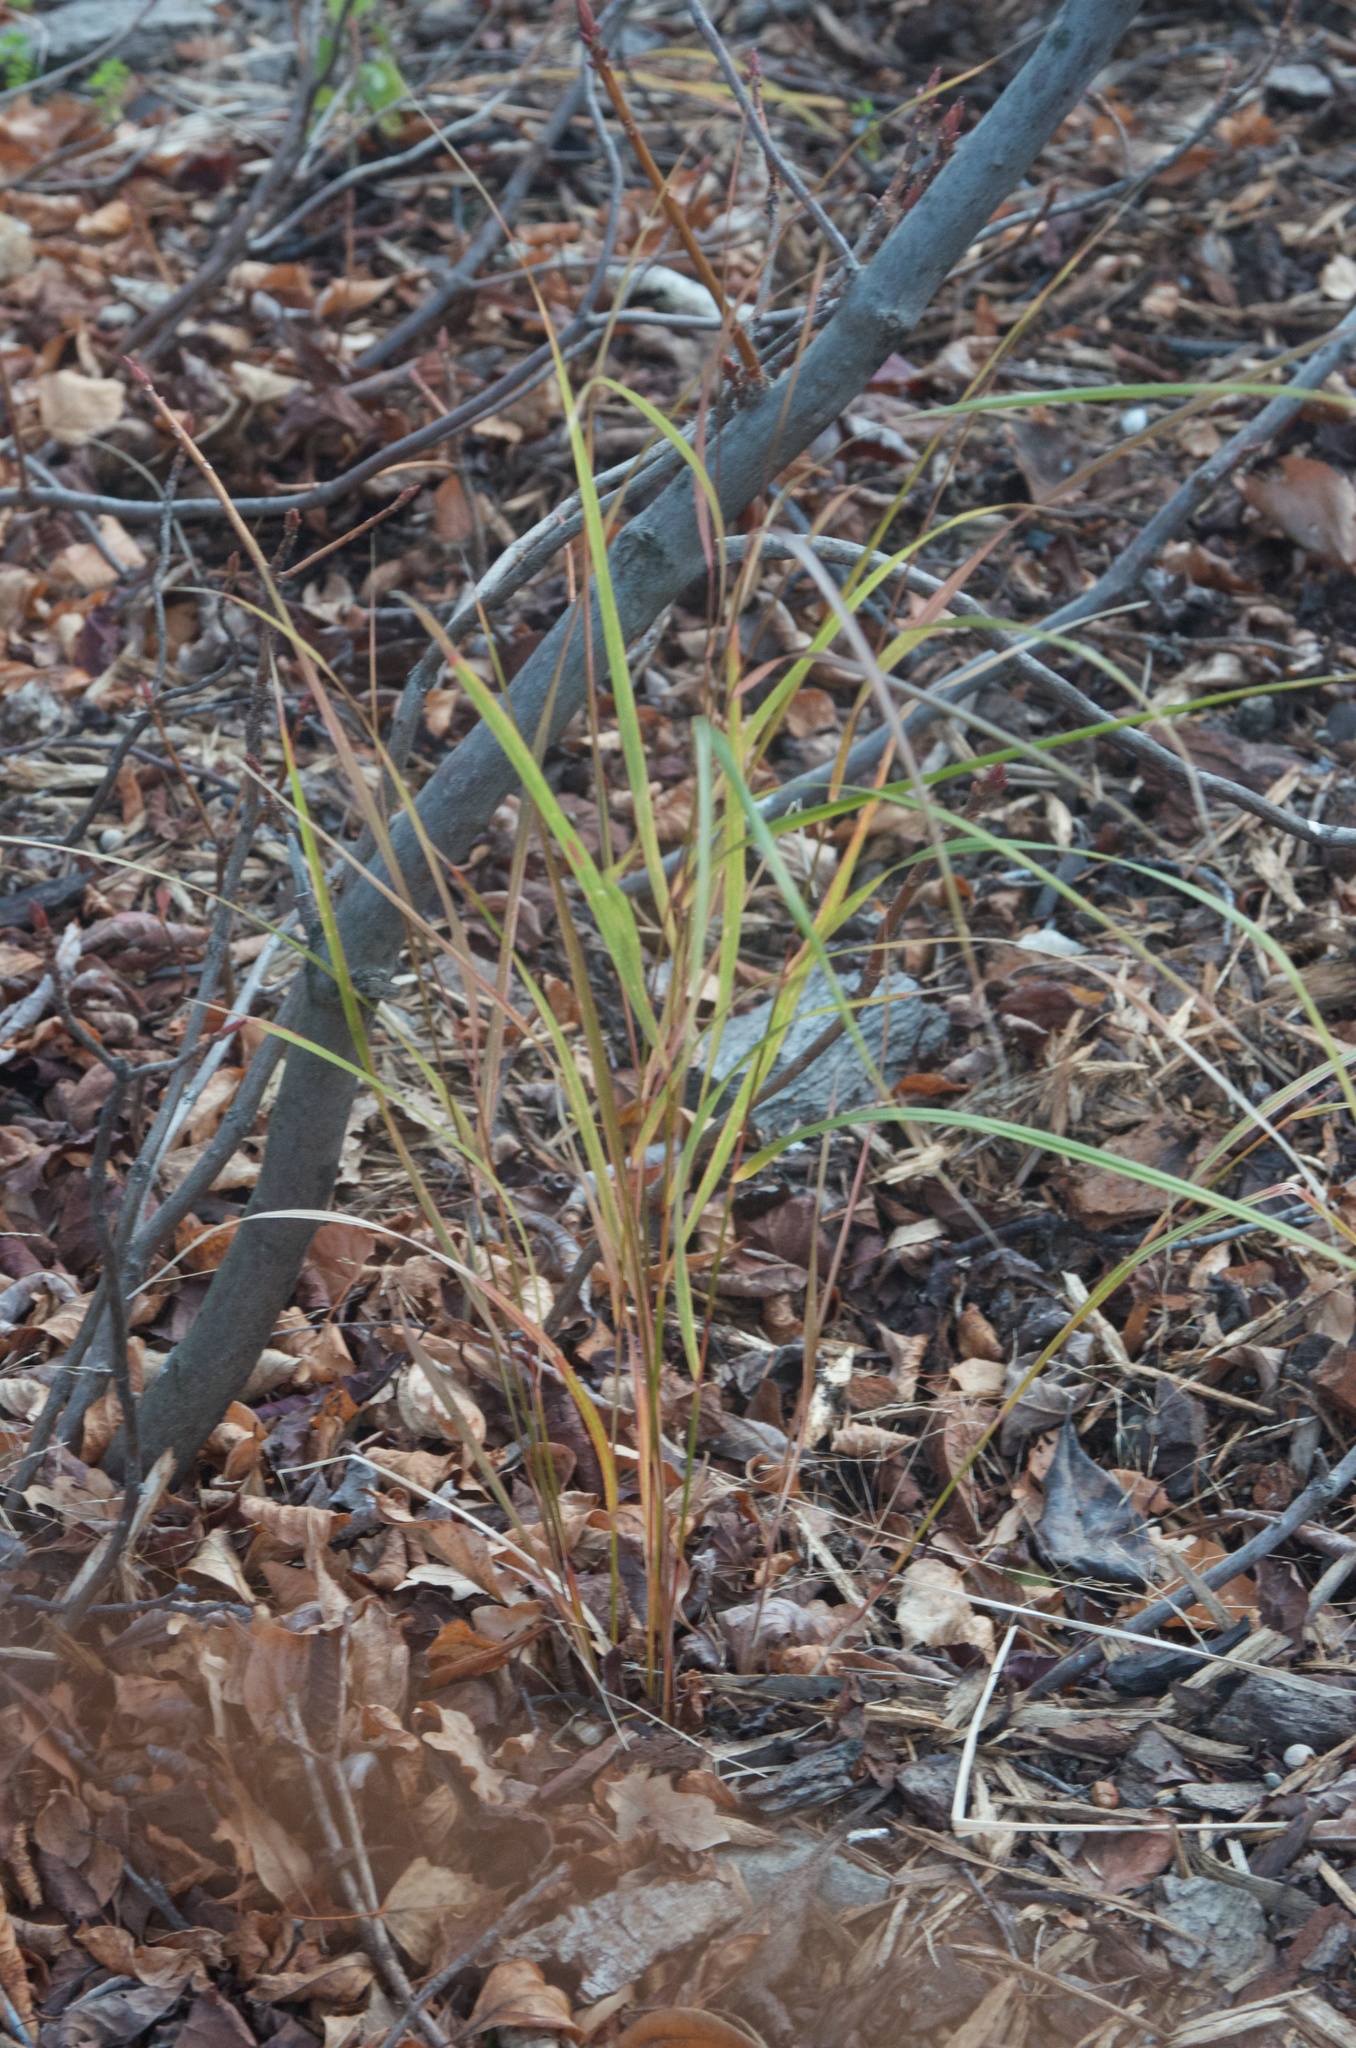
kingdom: Plantae
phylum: Tracheophyta
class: Liliopsida
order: Poales
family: Poaceae
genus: Anemanthele
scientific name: Anemanthele lessoniana
